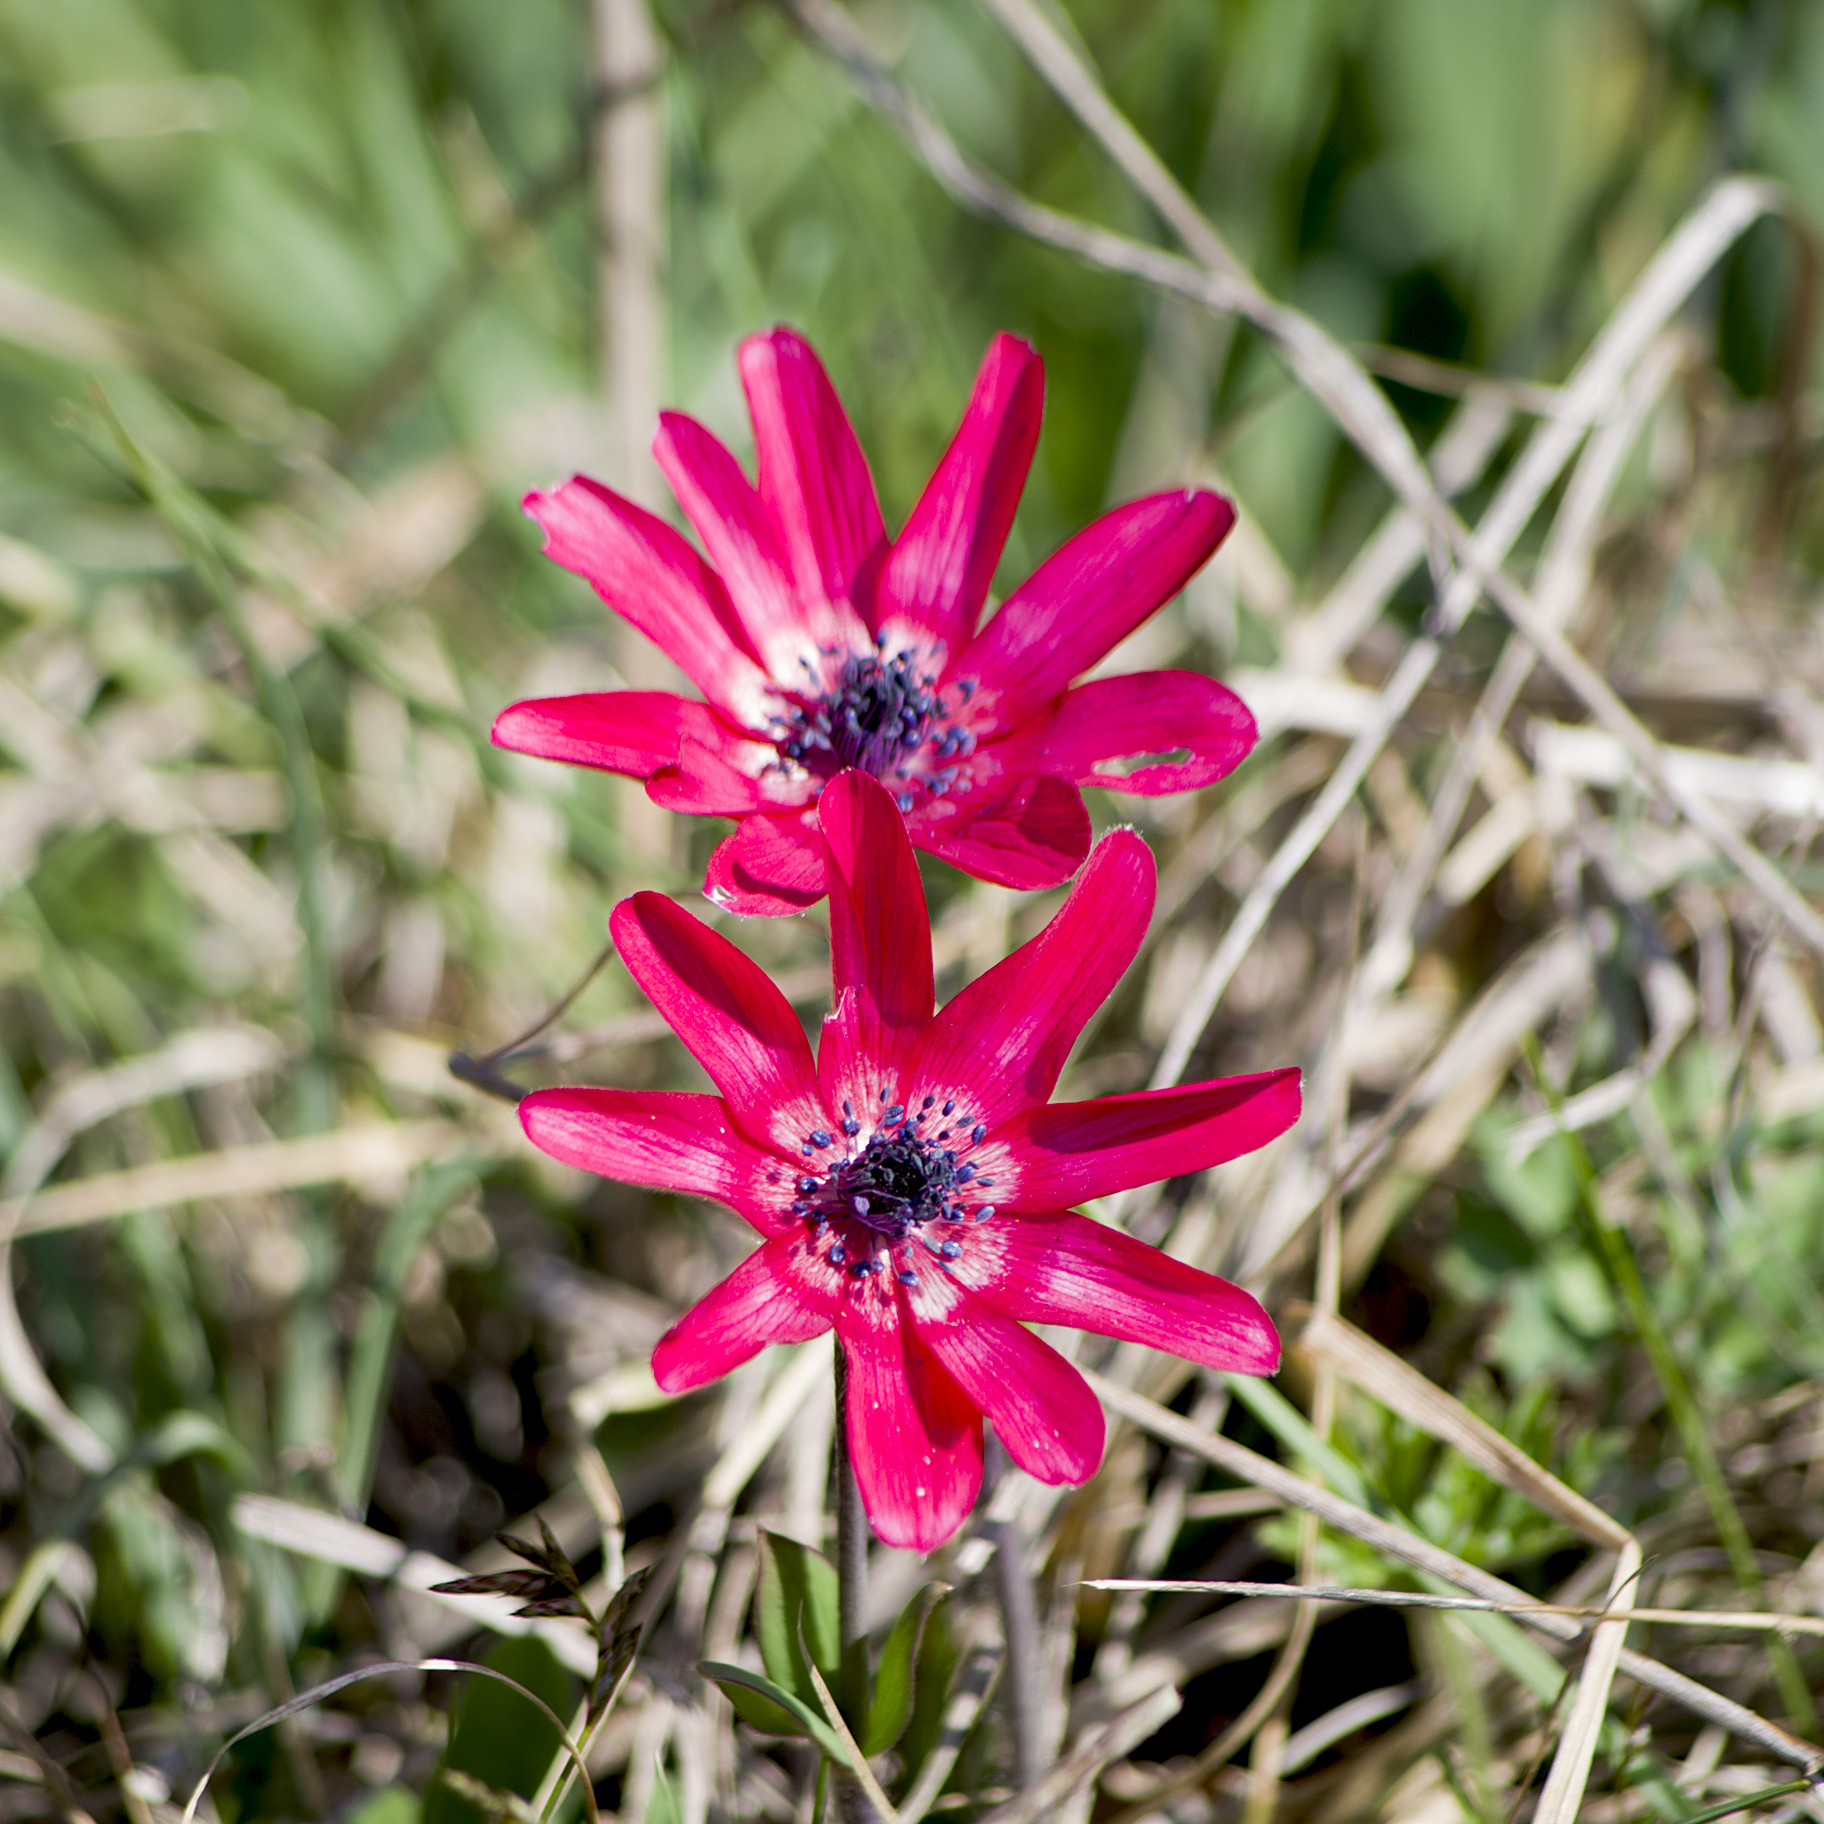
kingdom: Plantae
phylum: Tracheophyta
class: Magnoliopsida
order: Ranunculales
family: Ranunculaceae
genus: Anemone
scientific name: Anemone pavonina
